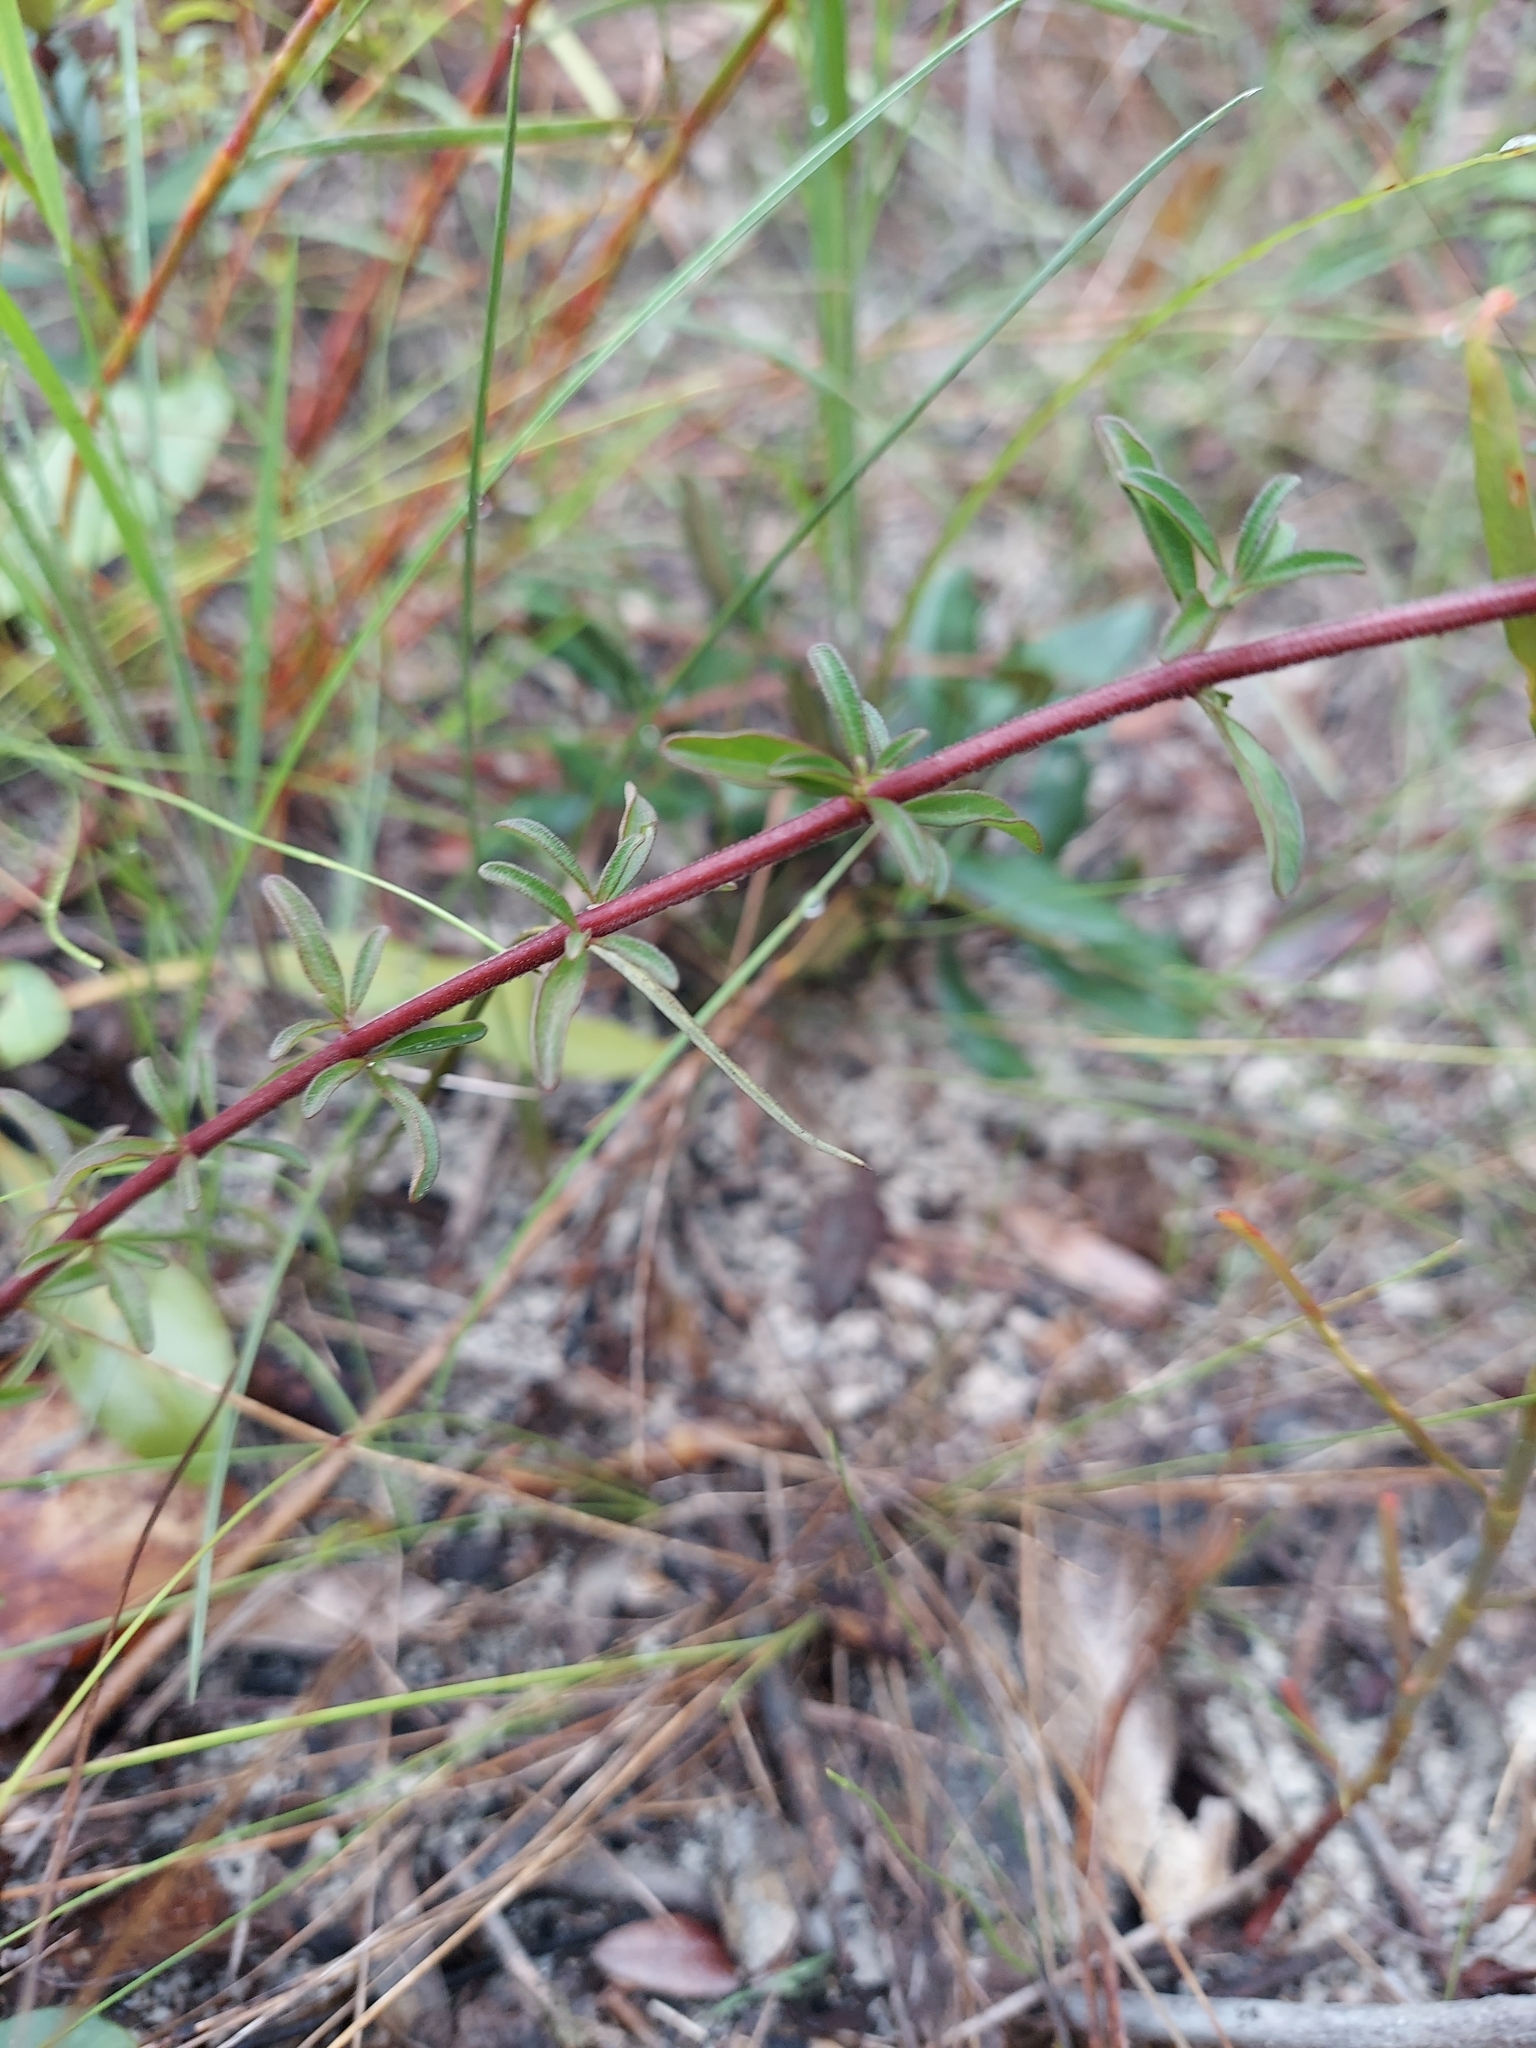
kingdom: Plantae
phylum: Tracheophyta
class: Magnoliopsida
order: Lamiales
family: Lamiaceae
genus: Trichostema
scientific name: Trichostema microphyllum
